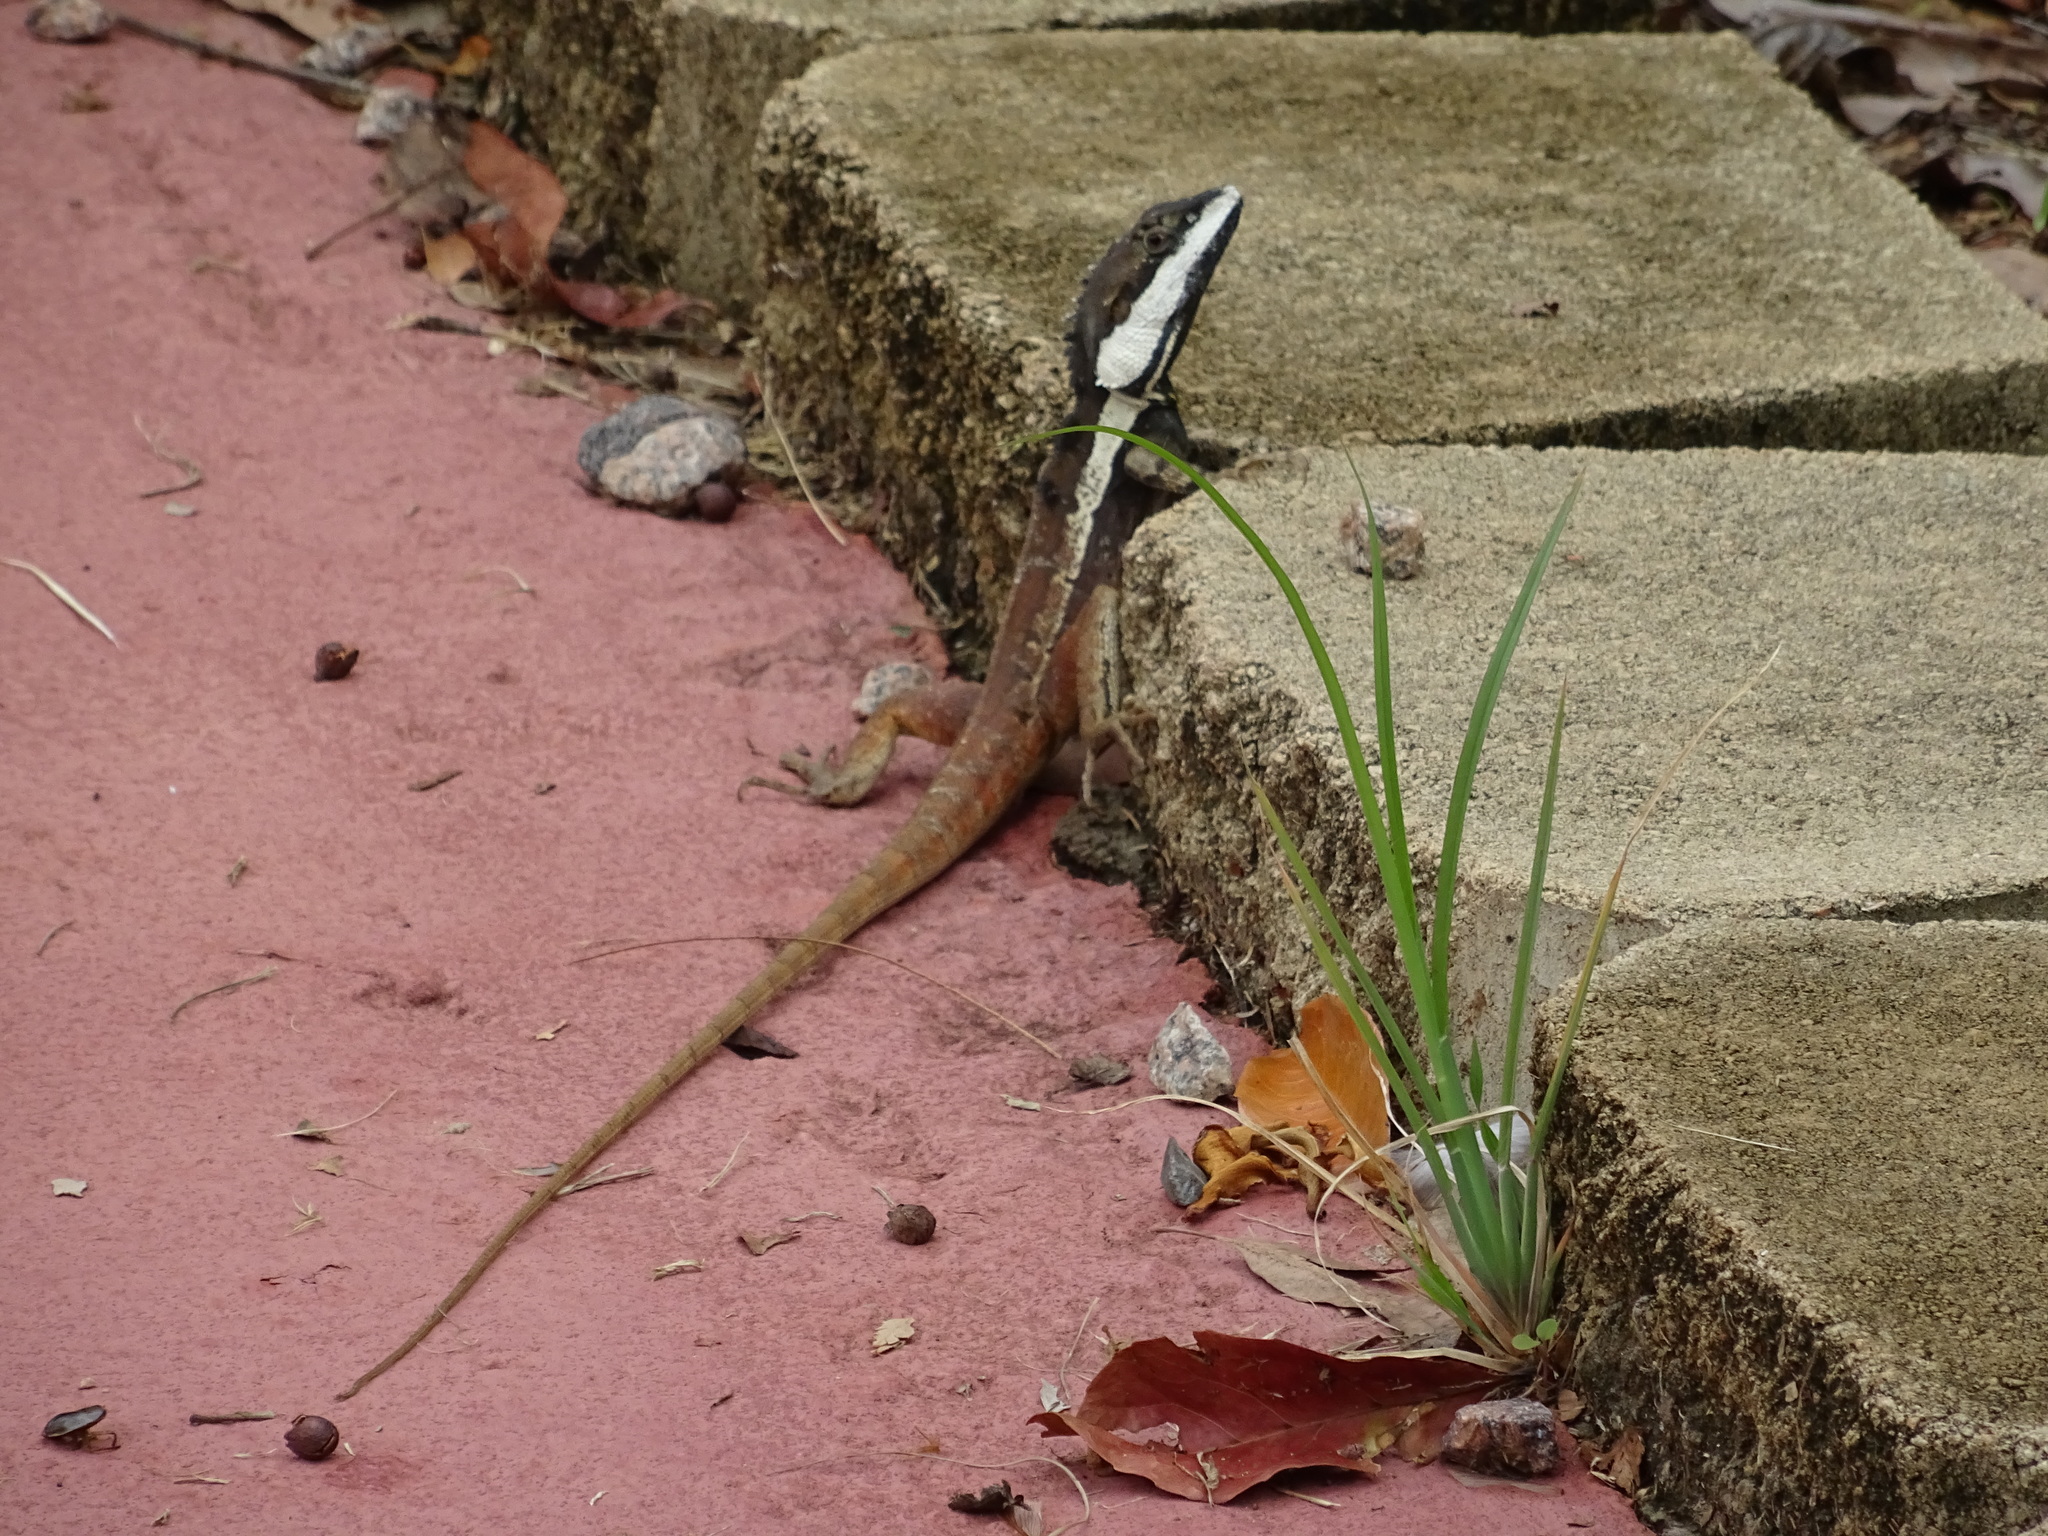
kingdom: Animalia
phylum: Chordata
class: Squamata
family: Agamidae
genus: Tropicagama
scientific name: Tropicagama temporalis
